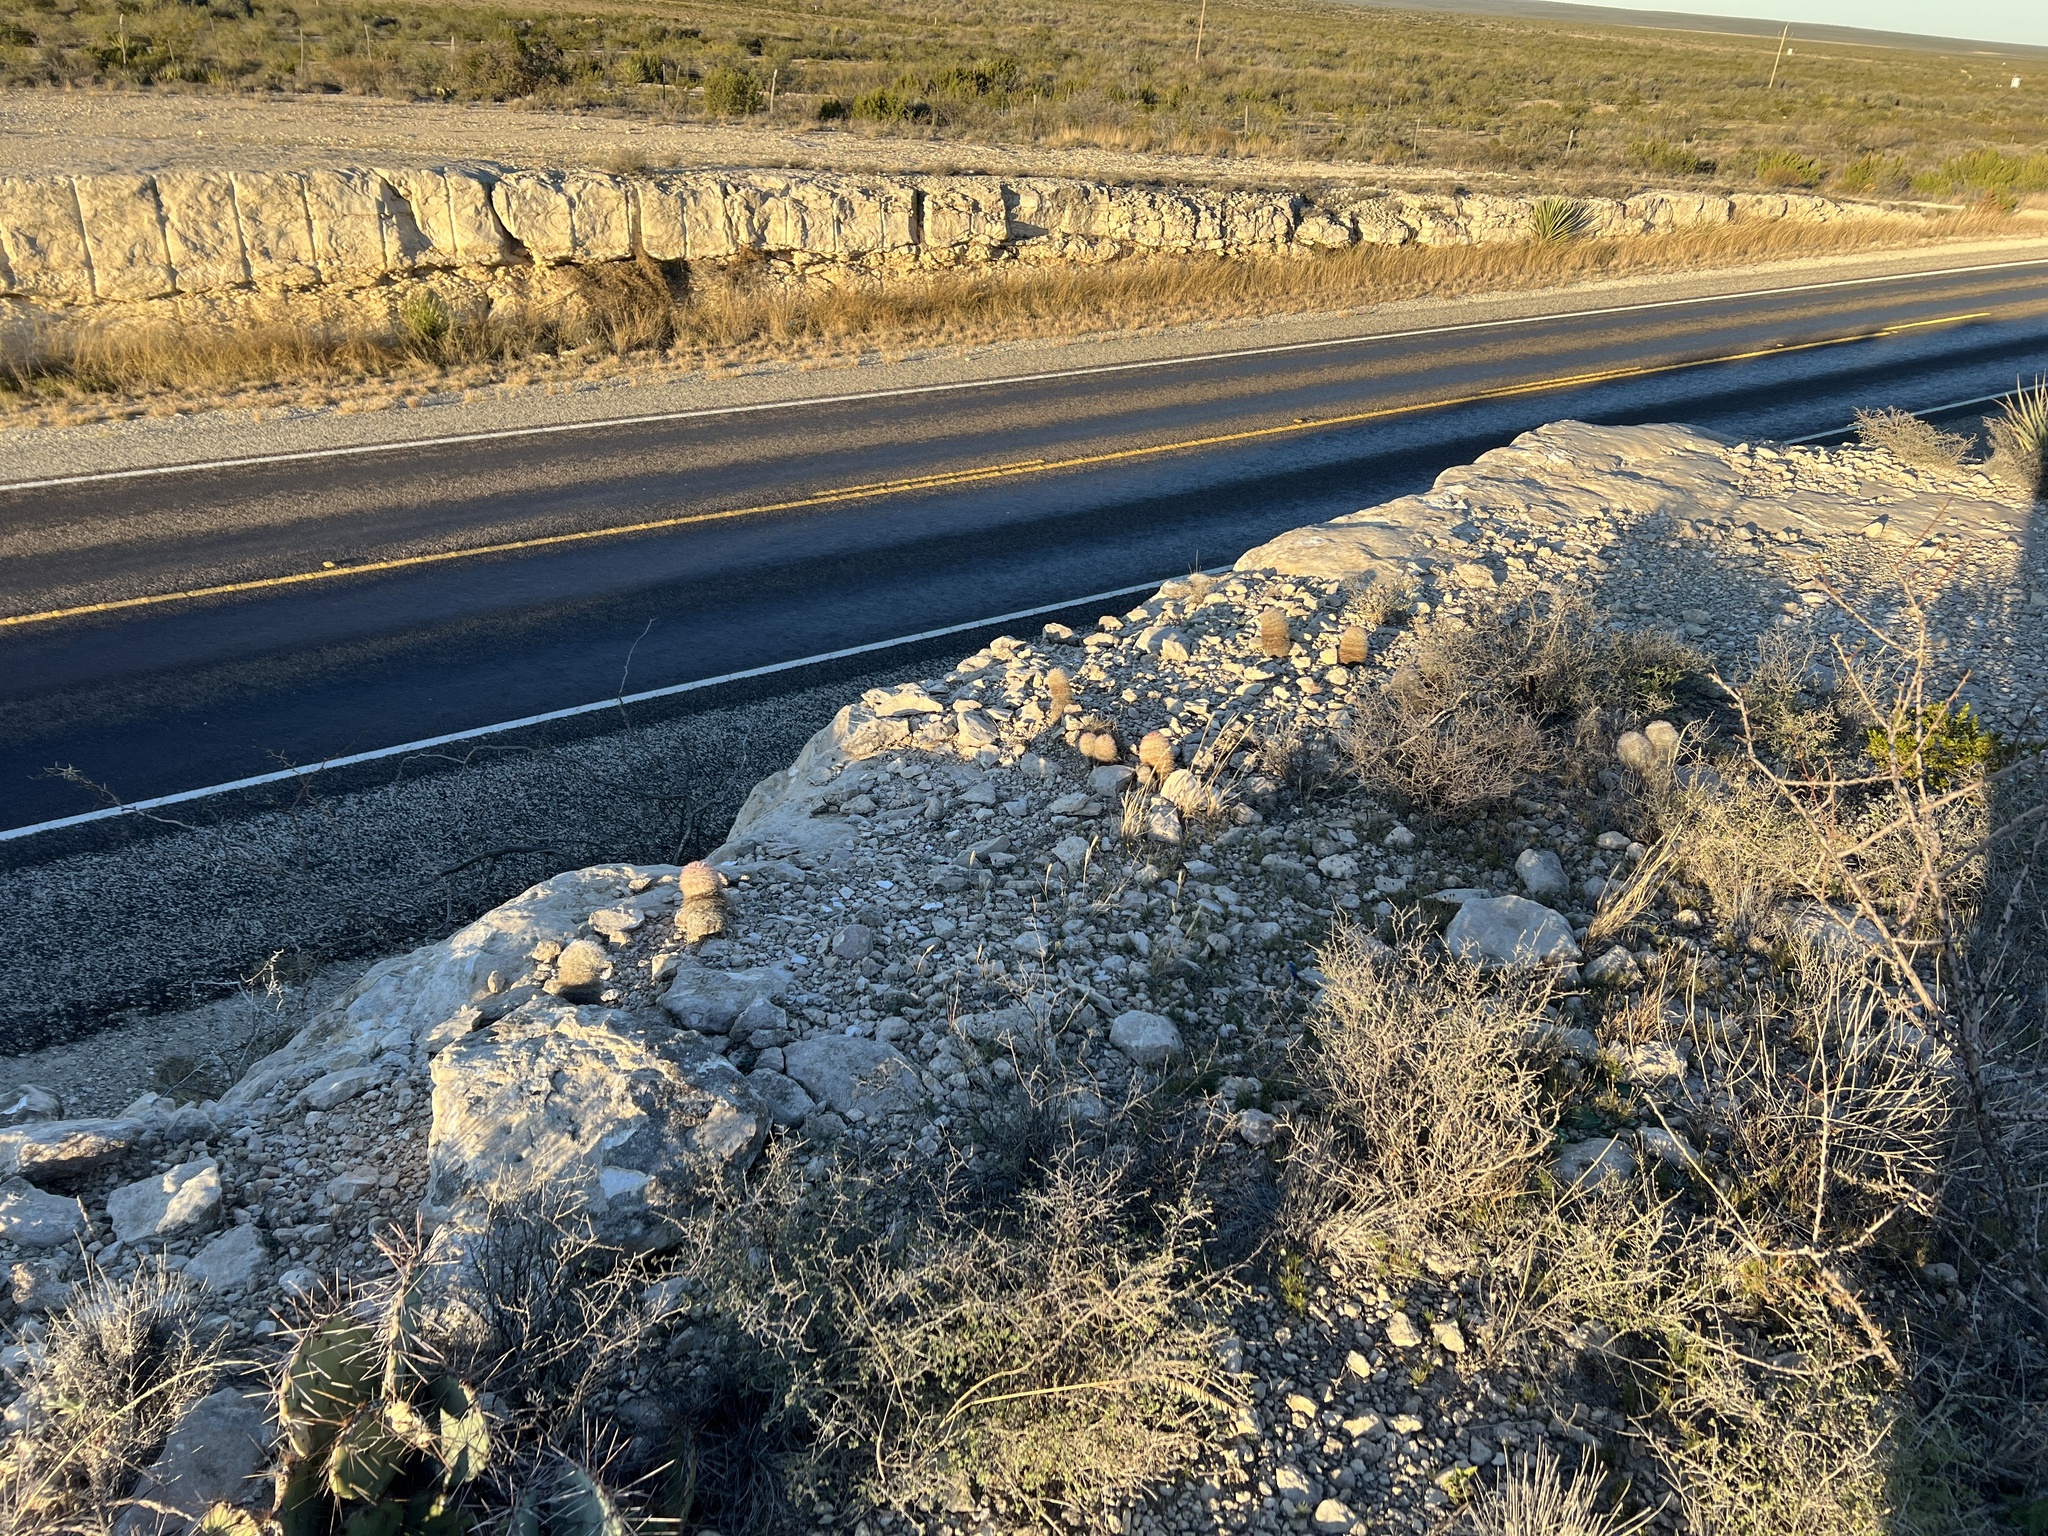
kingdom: Plantae
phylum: Tracheophyta
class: Magnoliopsida
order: Caryophyllales
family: Cactaceae
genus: Echinocereus
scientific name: Echinocereus dasyacanthus
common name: Spiny hedgehog cactus
